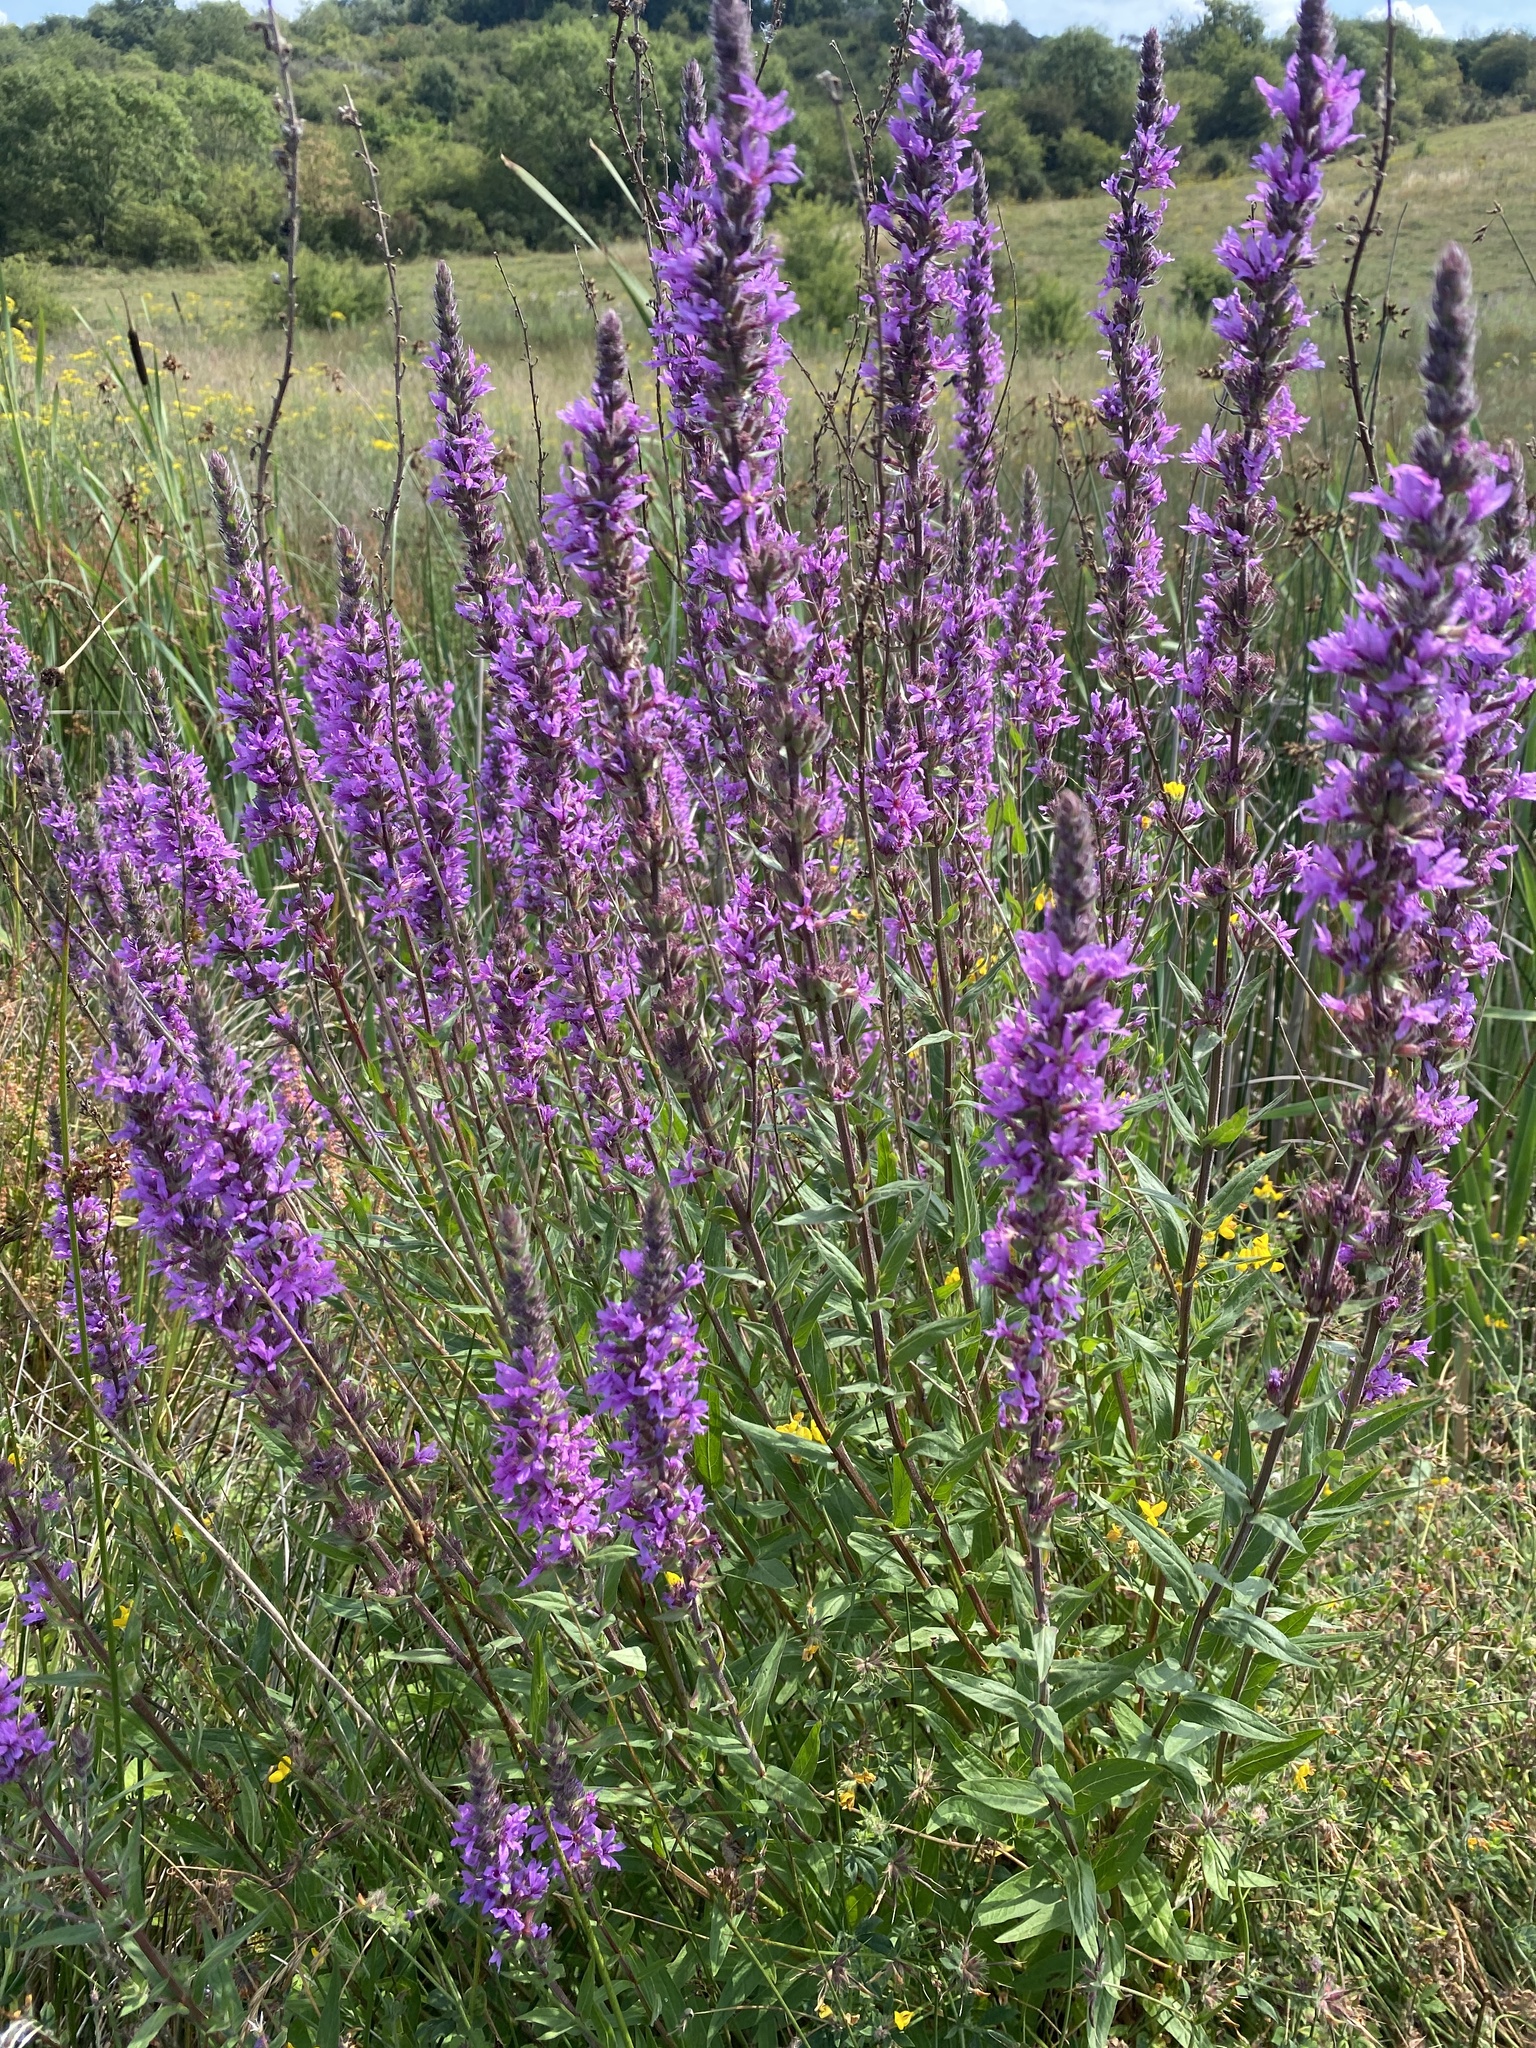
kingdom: Plantae
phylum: Tracheophyta
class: Magnoliopsida
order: Myrtales
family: Lythraceae
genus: Lythrum
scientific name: Lythrum salicaria
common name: Purple loosestrife
